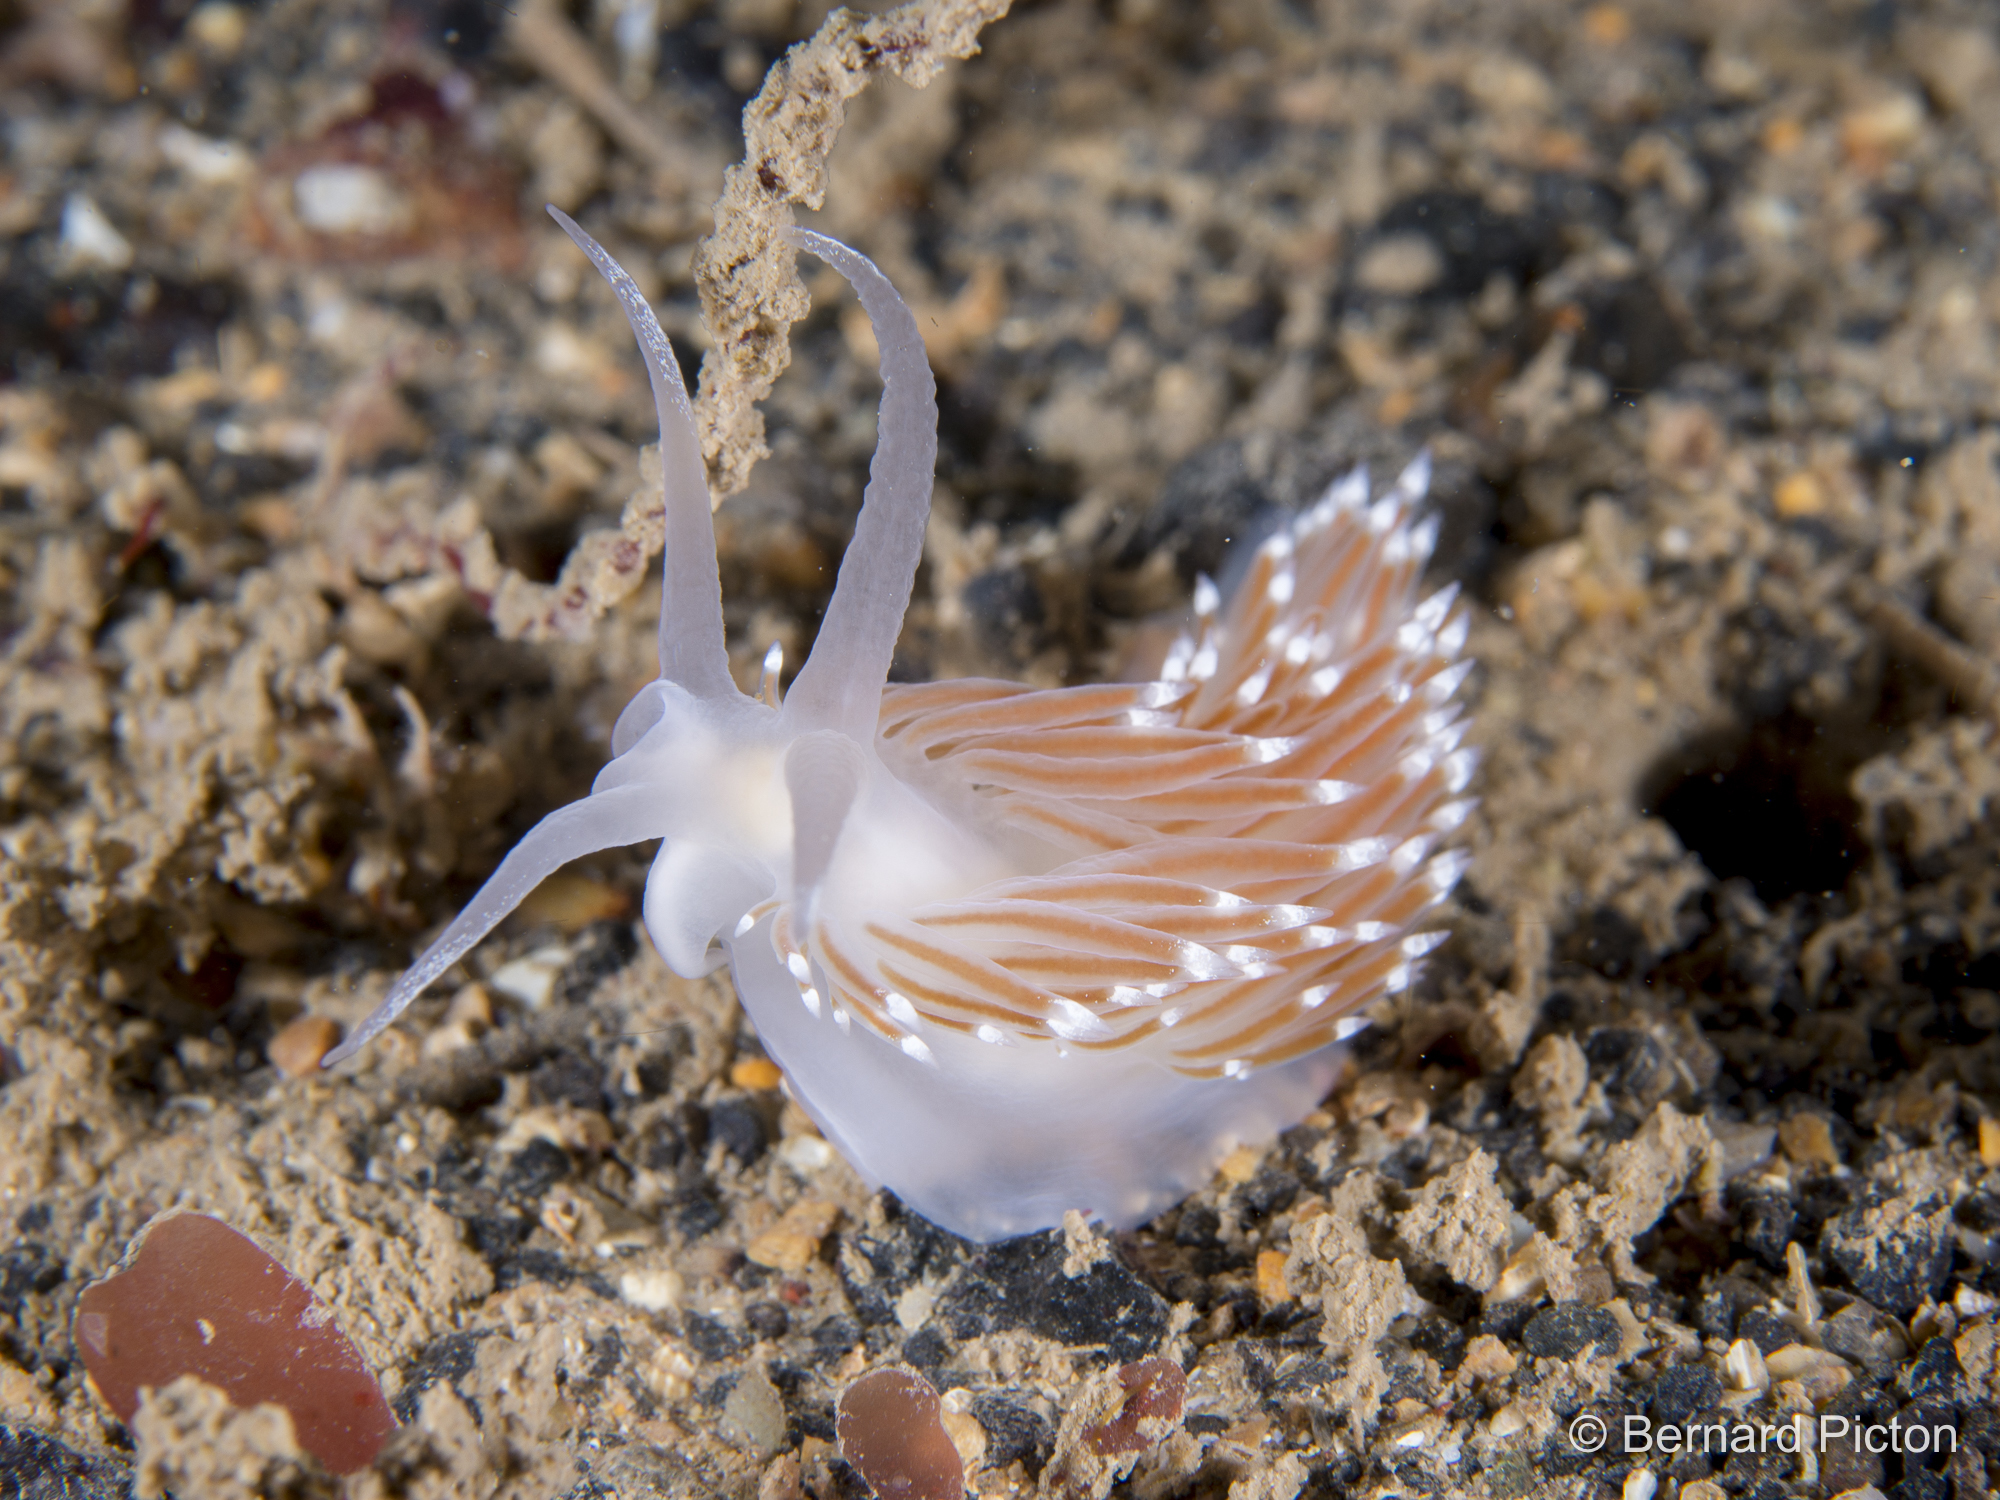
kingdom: Animalia
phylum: Mollusca
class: Gastropoda
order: Nudibranchia
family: Coryphellidae
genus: Coryphella
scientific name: Coryphella browni
